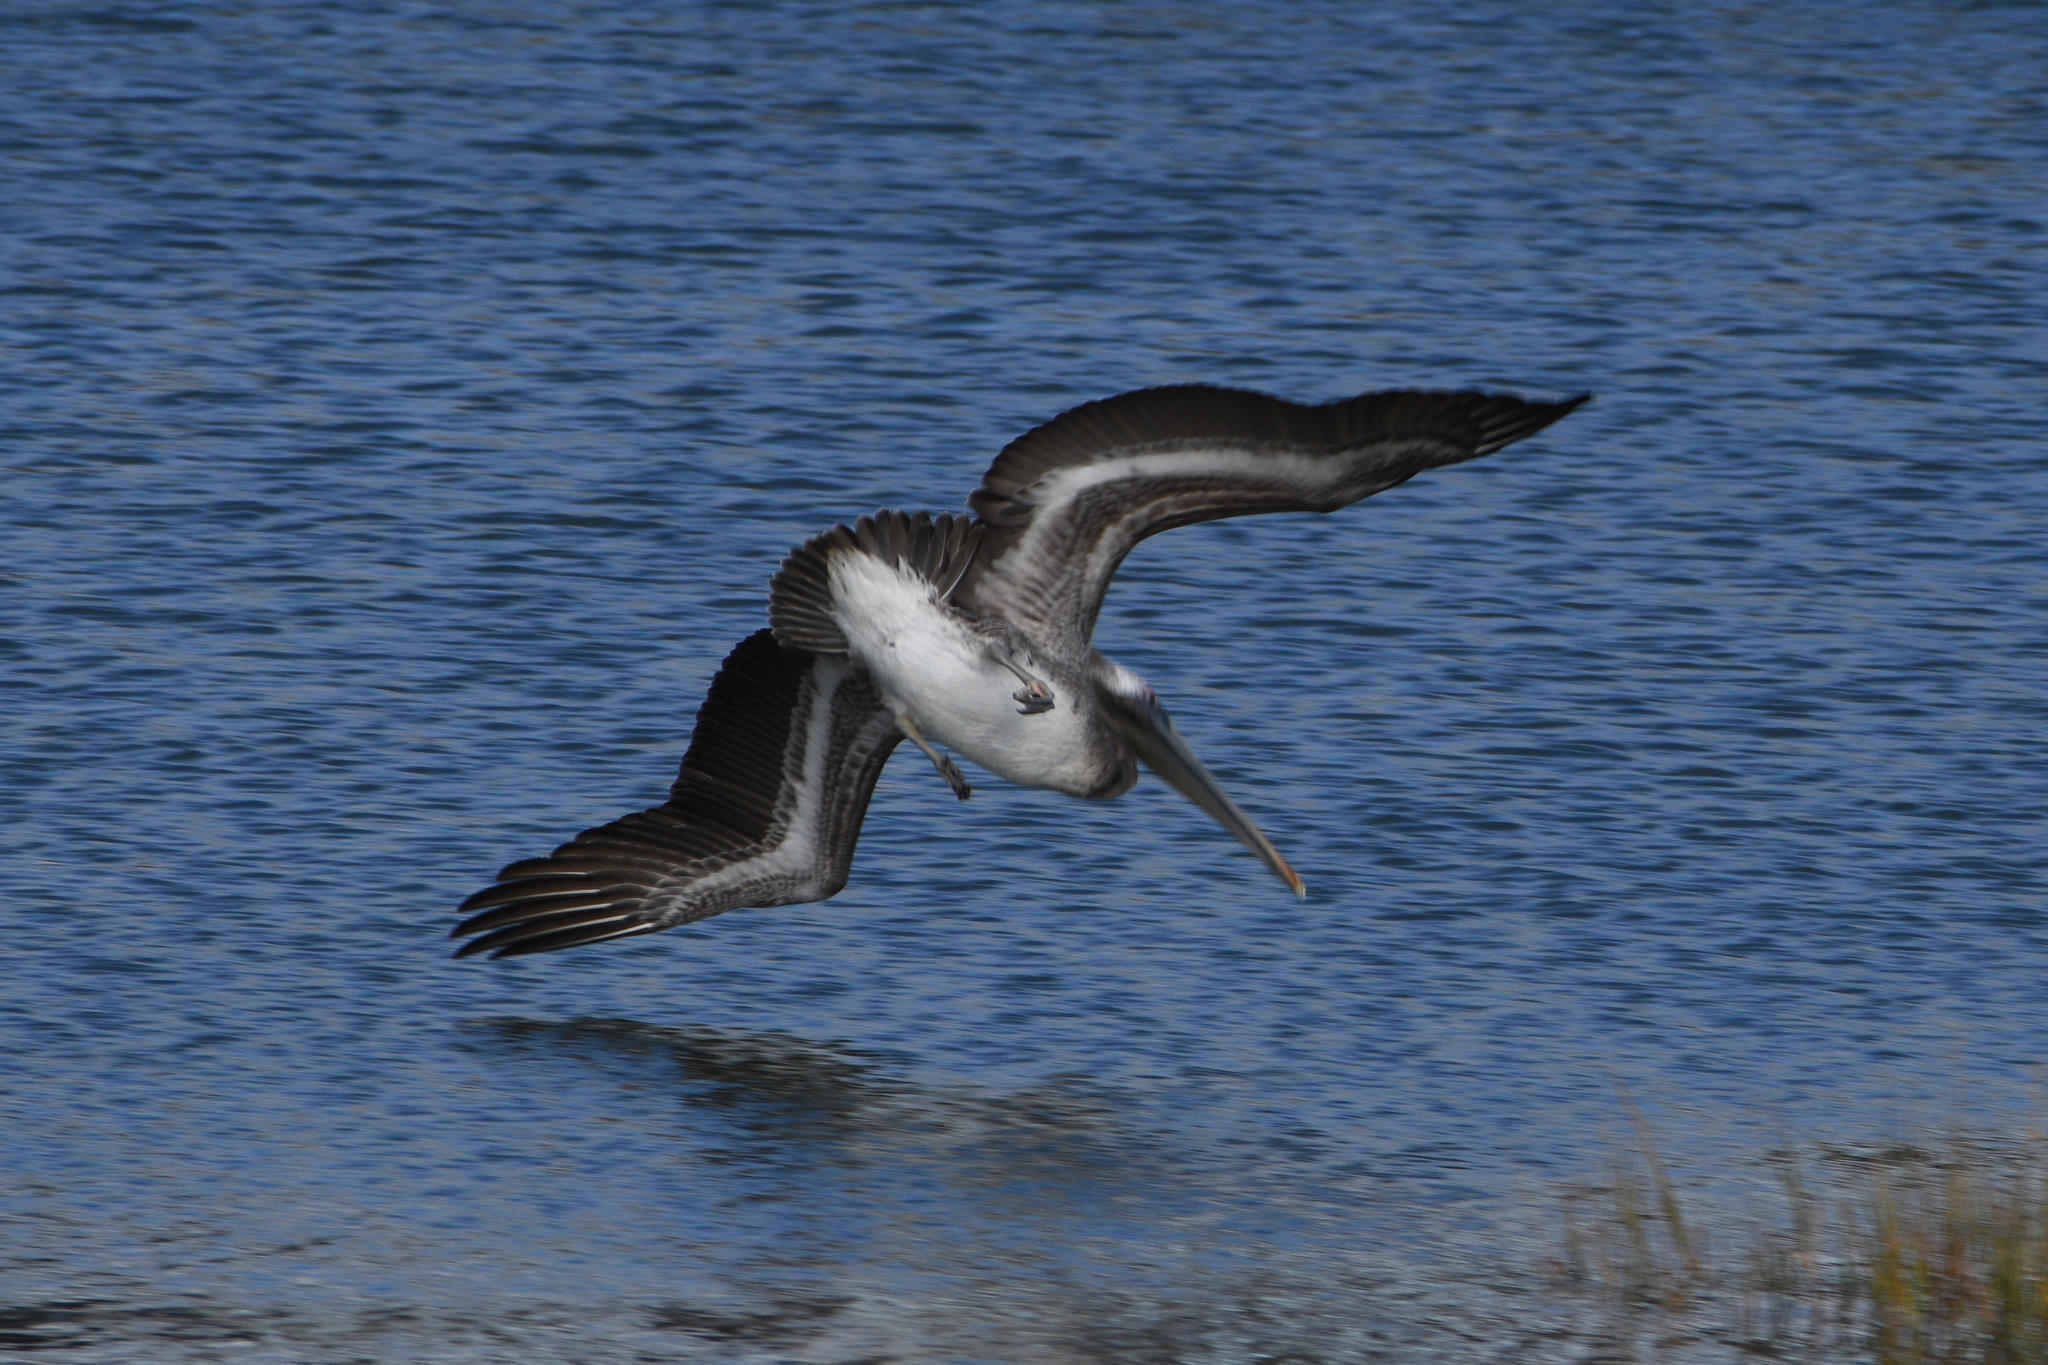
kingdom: Animalia
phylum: Chordata
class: Aves
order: Pelecaniformes
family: Pelecanidae
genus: Pelecanus
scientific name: Pelecanus occidentalis
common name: Brown pelican
